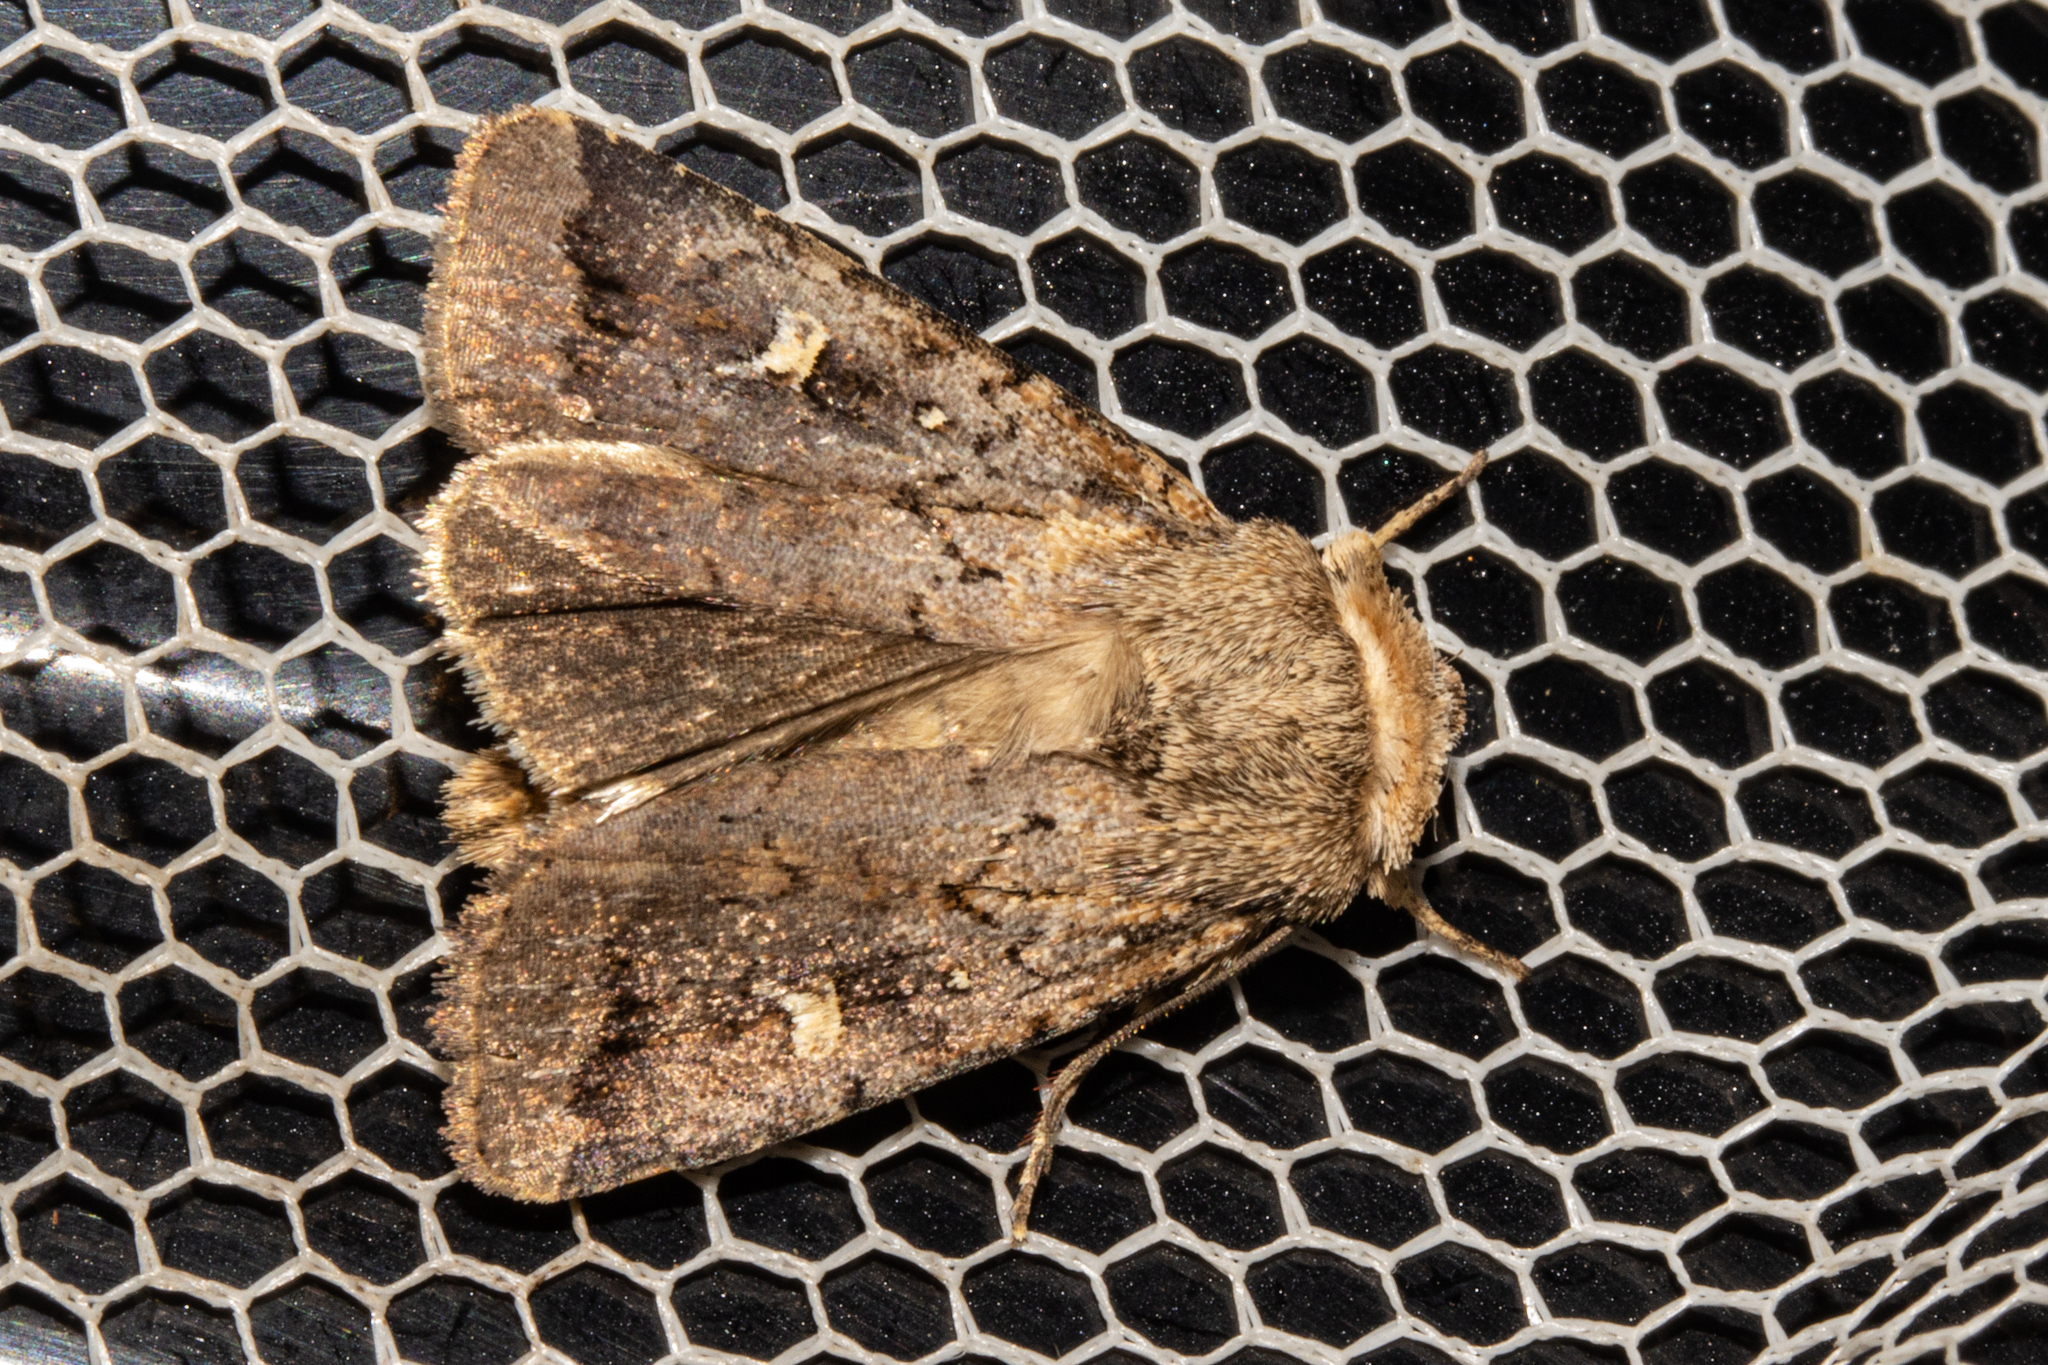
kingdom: Animalia
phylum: Arthropoda
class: Insecta
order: Lepidoptera
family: Noctuidae
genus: Proteuxoa
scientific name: Proteuxoa tetronycha
